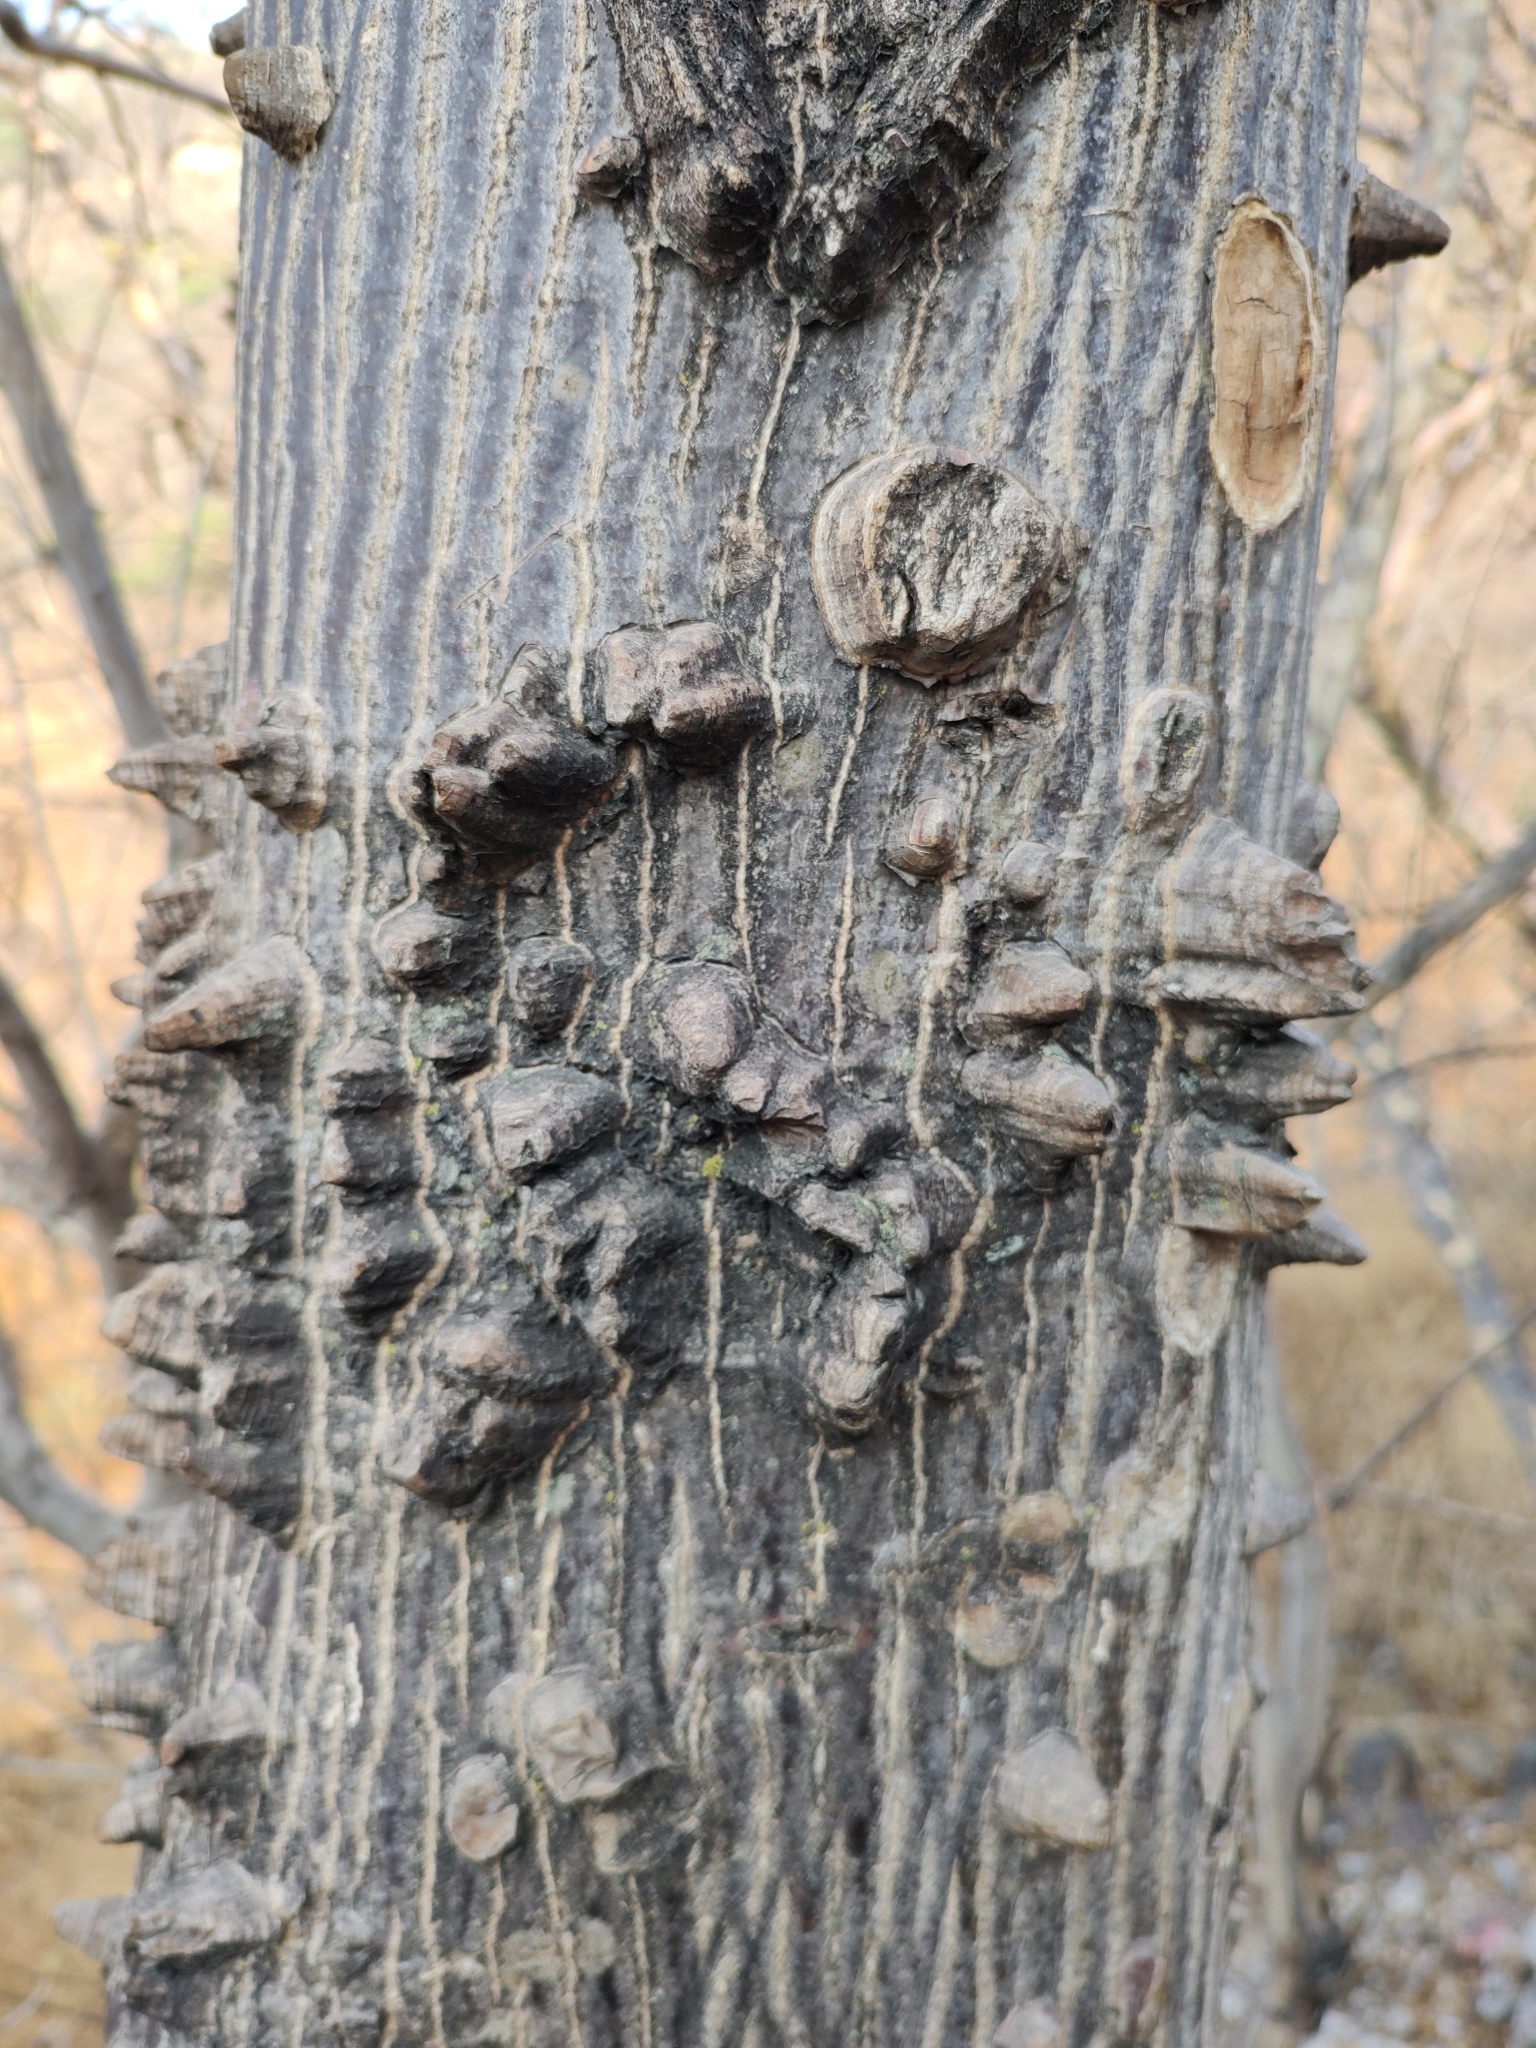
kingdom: Plantae
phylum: Tracheophyta
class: Magnoliopsida
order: Sapindales
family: Anacardiaceae
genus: Amphipterygium
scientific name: Amphipterygium molle
